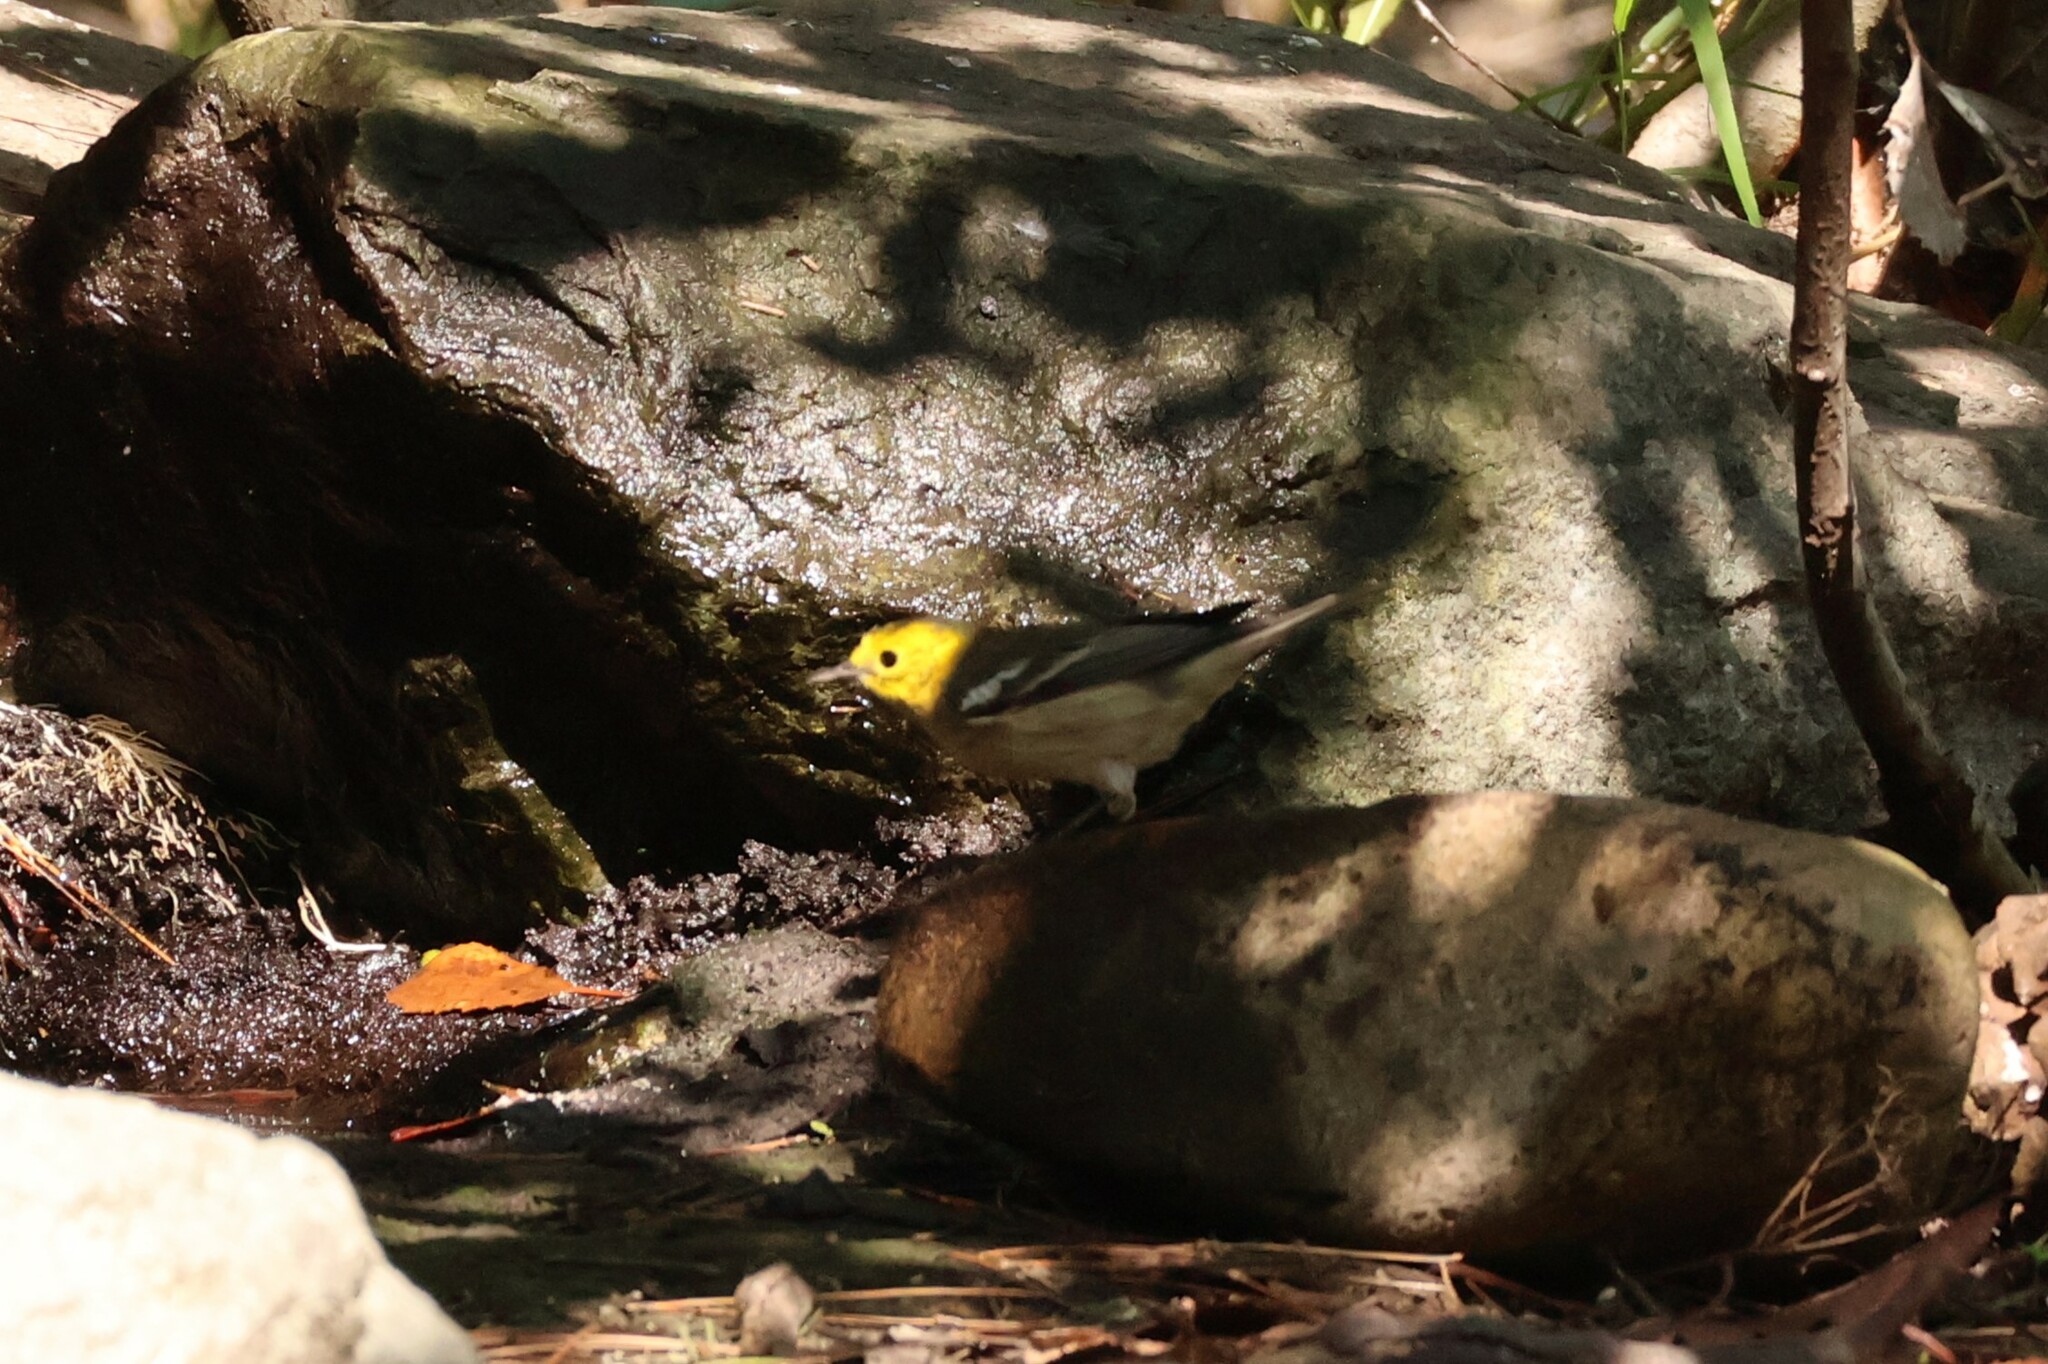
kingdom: Animalia
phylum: Chordata
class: Aves
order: Passeriformes
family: Parulidae
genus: Setophaga
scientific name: Setophaga occidentalis
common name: Hermit warbler
